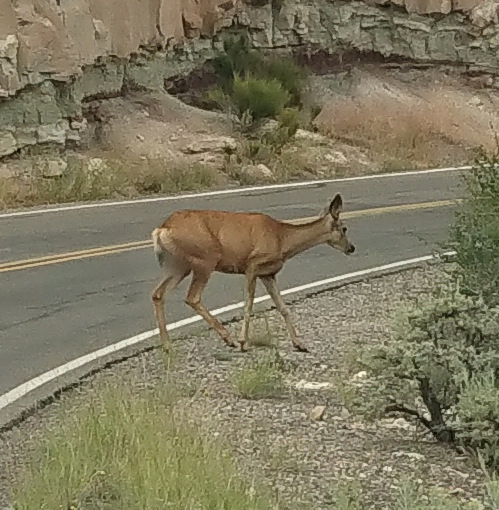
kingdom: Animalia
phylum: Chordata
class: Mammalia
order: Artiodactyla
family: Cervidae
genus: Odocoileus
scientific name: Odocoileus hemionus
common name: Mule deer
